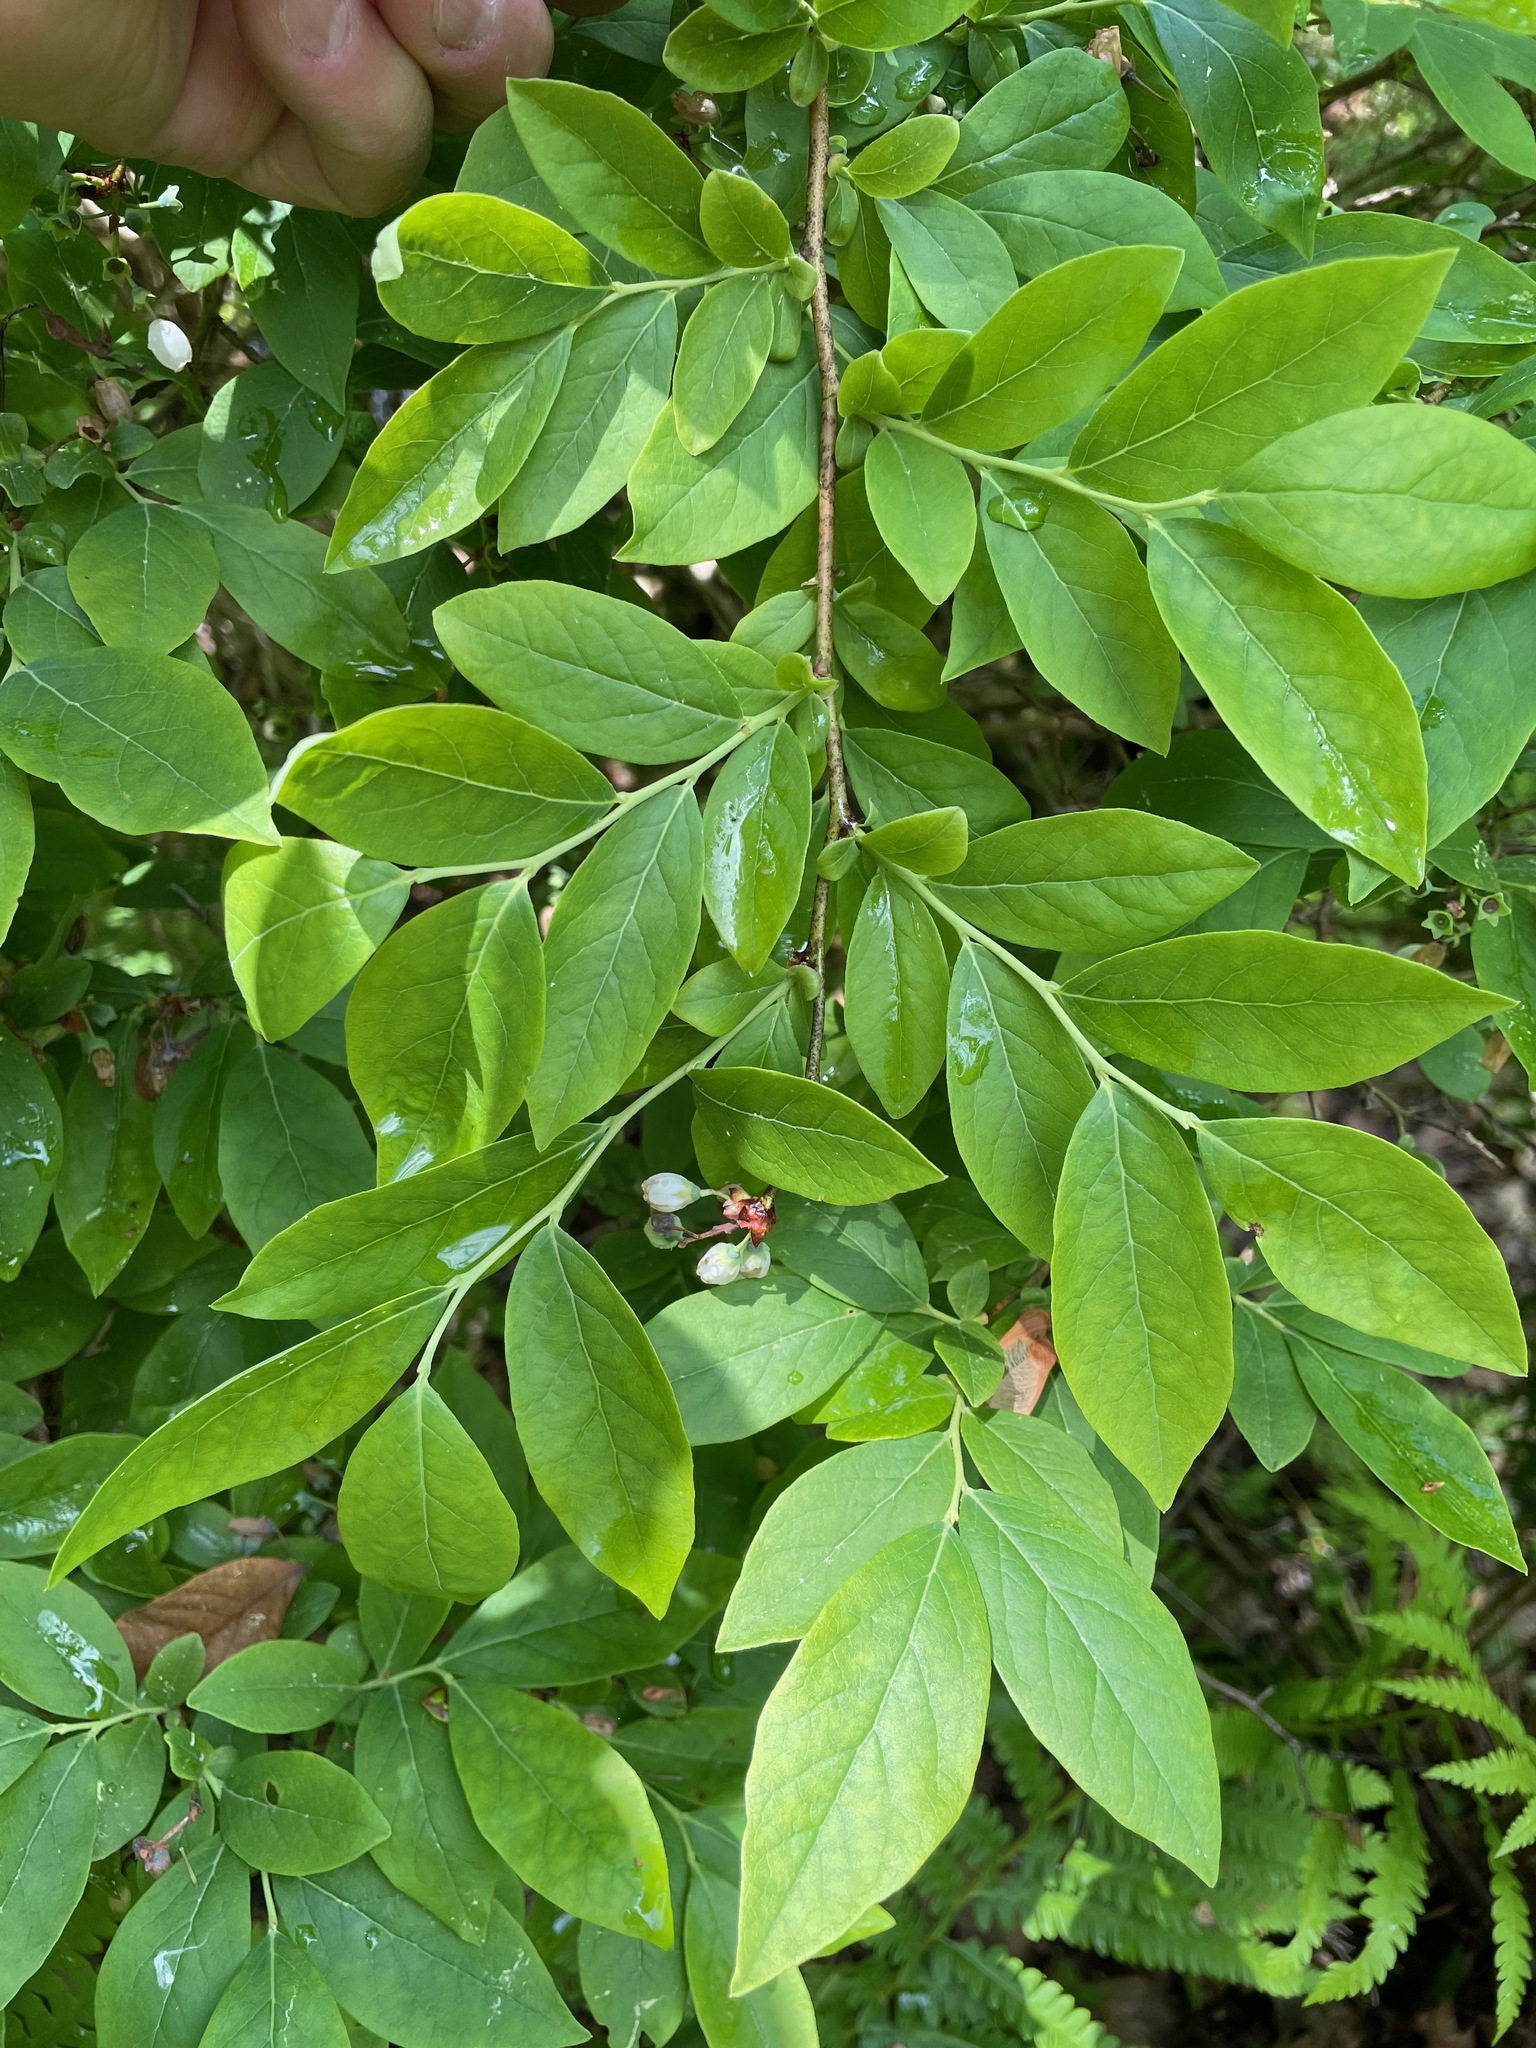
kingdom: Plantae
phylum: Tracheophyta
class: Magnoliopsida
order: Ericales
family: Ericaceae
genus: Vaccinium
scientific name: Vaccinium corymbosum
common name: Blueberry
